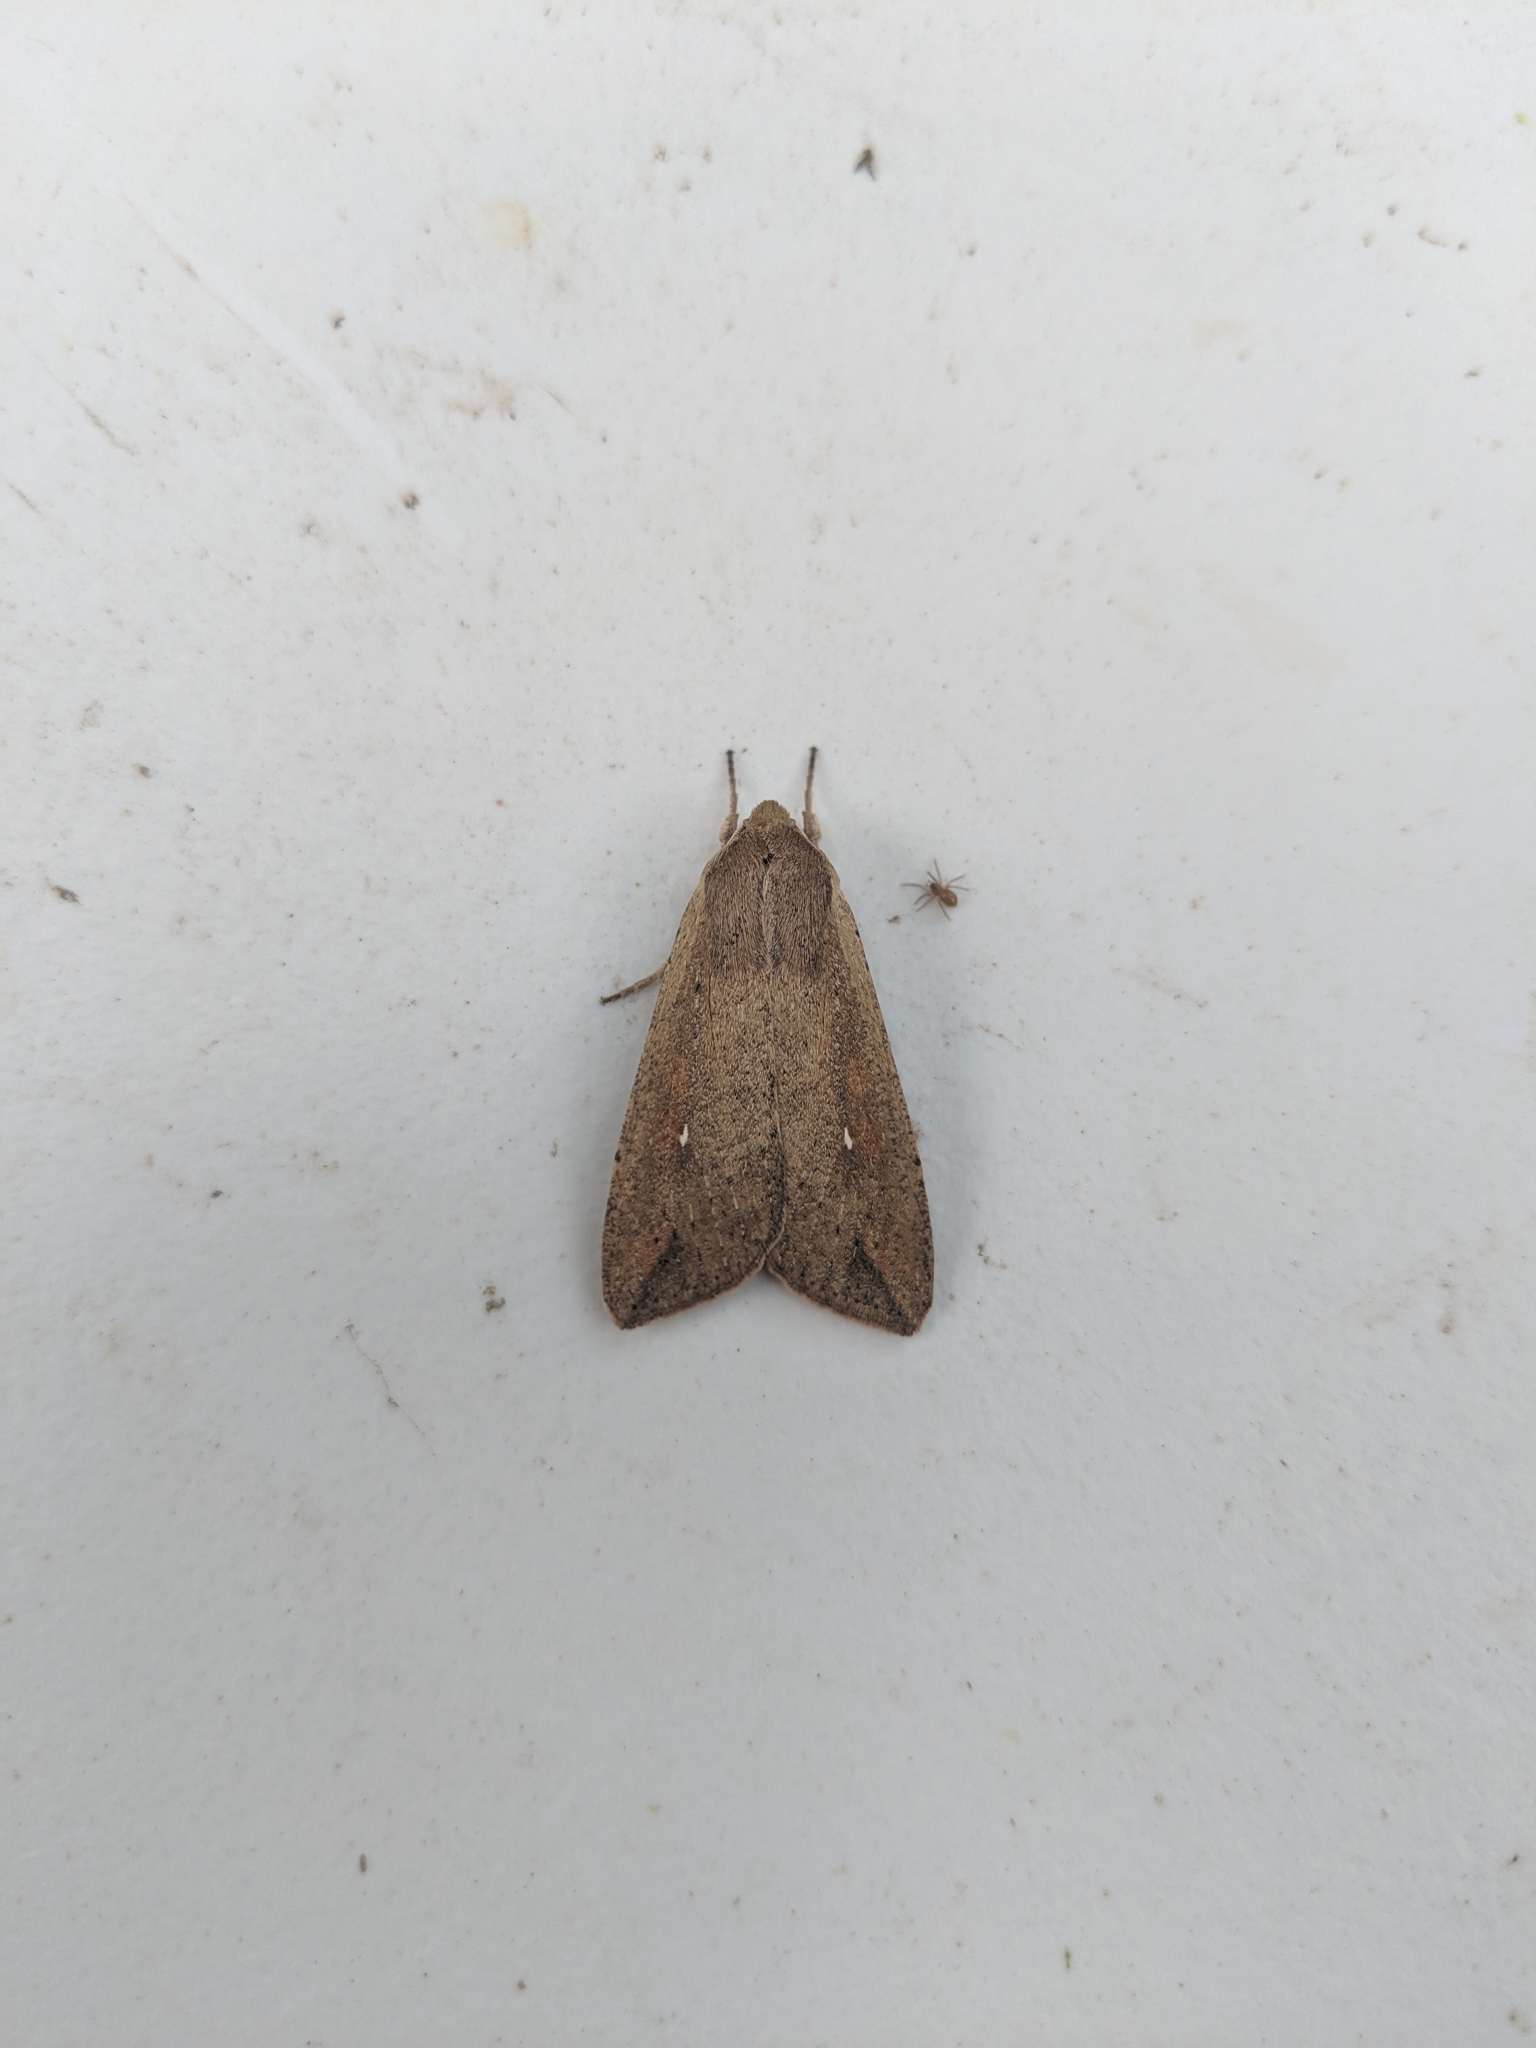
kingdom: Animalia
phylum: Arthropoda
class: Insecta
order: Lepidoptera
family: Noctuidae
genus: Mythimna
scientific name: Mythimna unipuncta
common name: White-speck
